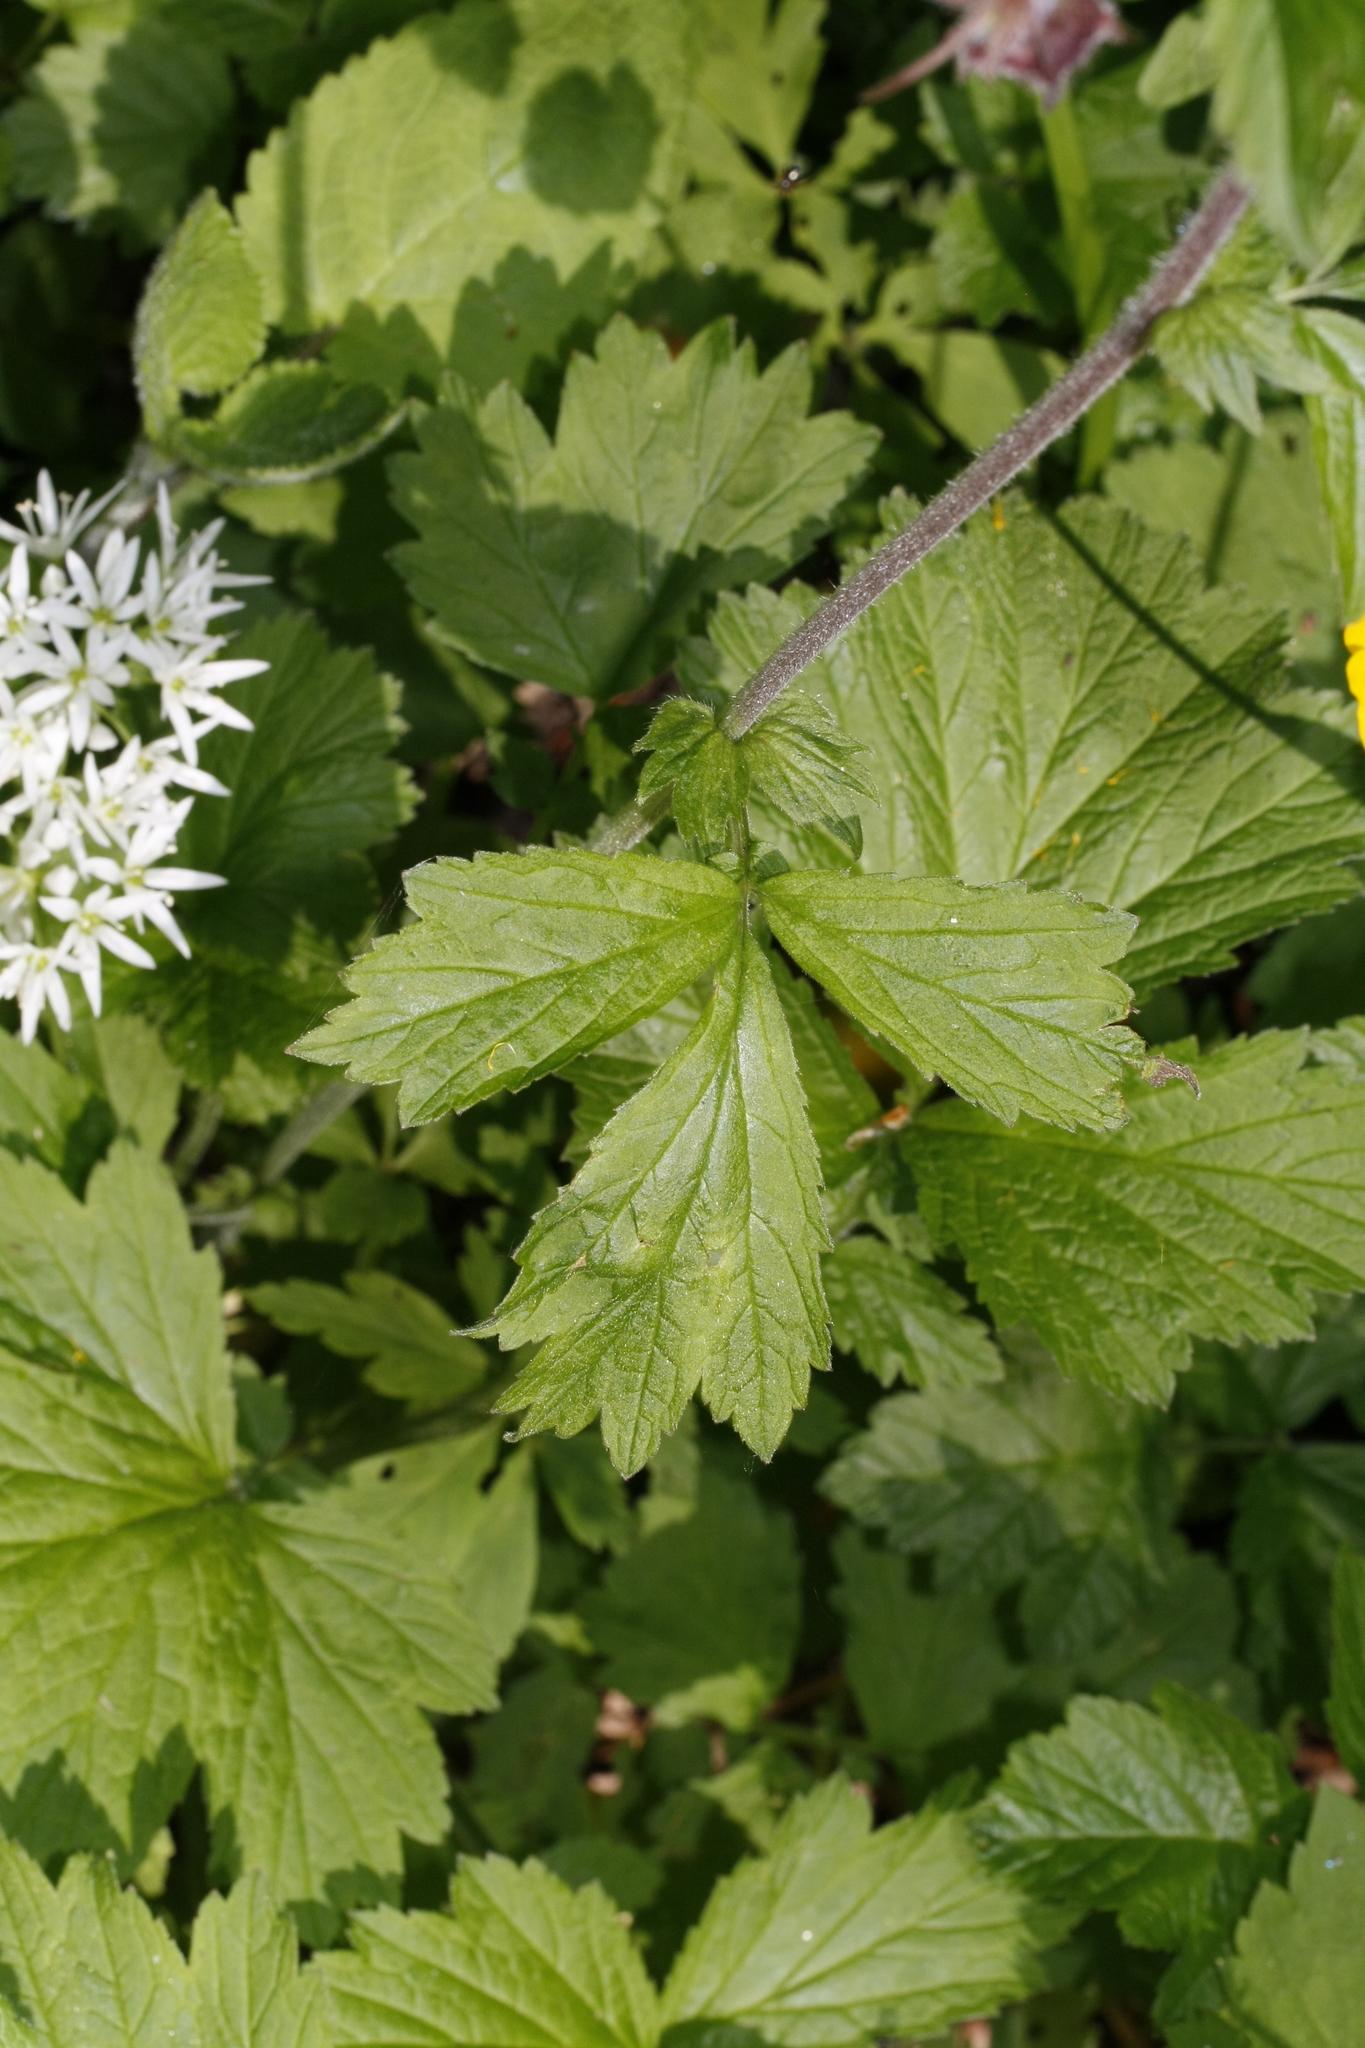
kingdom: Plantae
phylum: Tracheophyta
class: Magnoliopsida
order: Rosales
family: Rosaceae
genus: Geum
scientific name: Geum rivale
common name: Water avens
